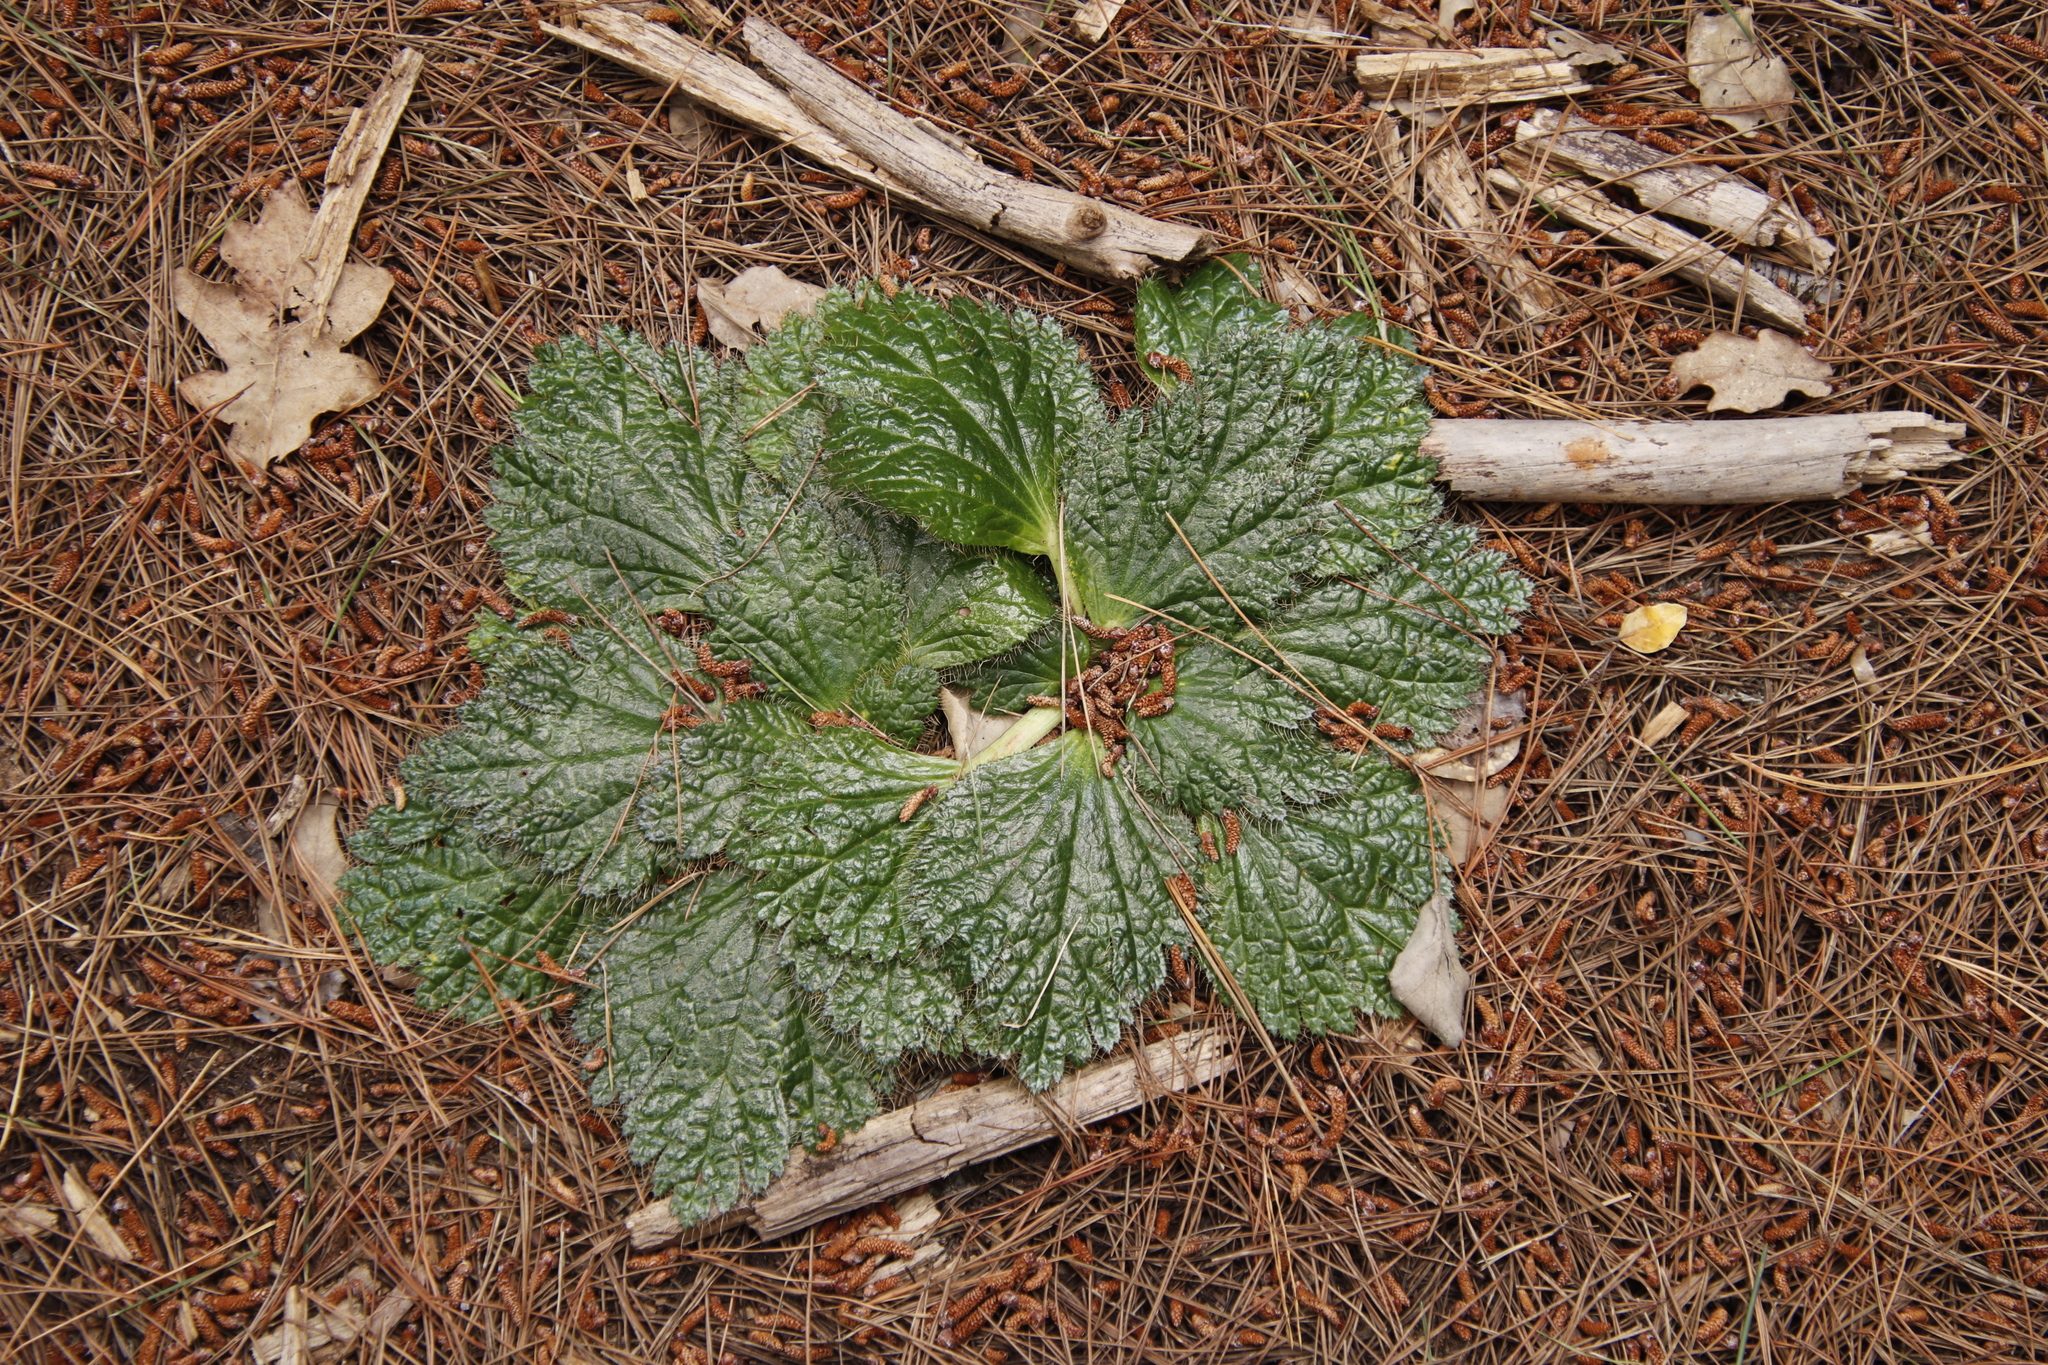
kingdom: Plantae
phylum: Tracheophyta
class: Magnoliopsida
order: Apiales
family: Apiaceae
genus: Arctopus
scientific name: Arctopus echinatus
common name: Platdoring
